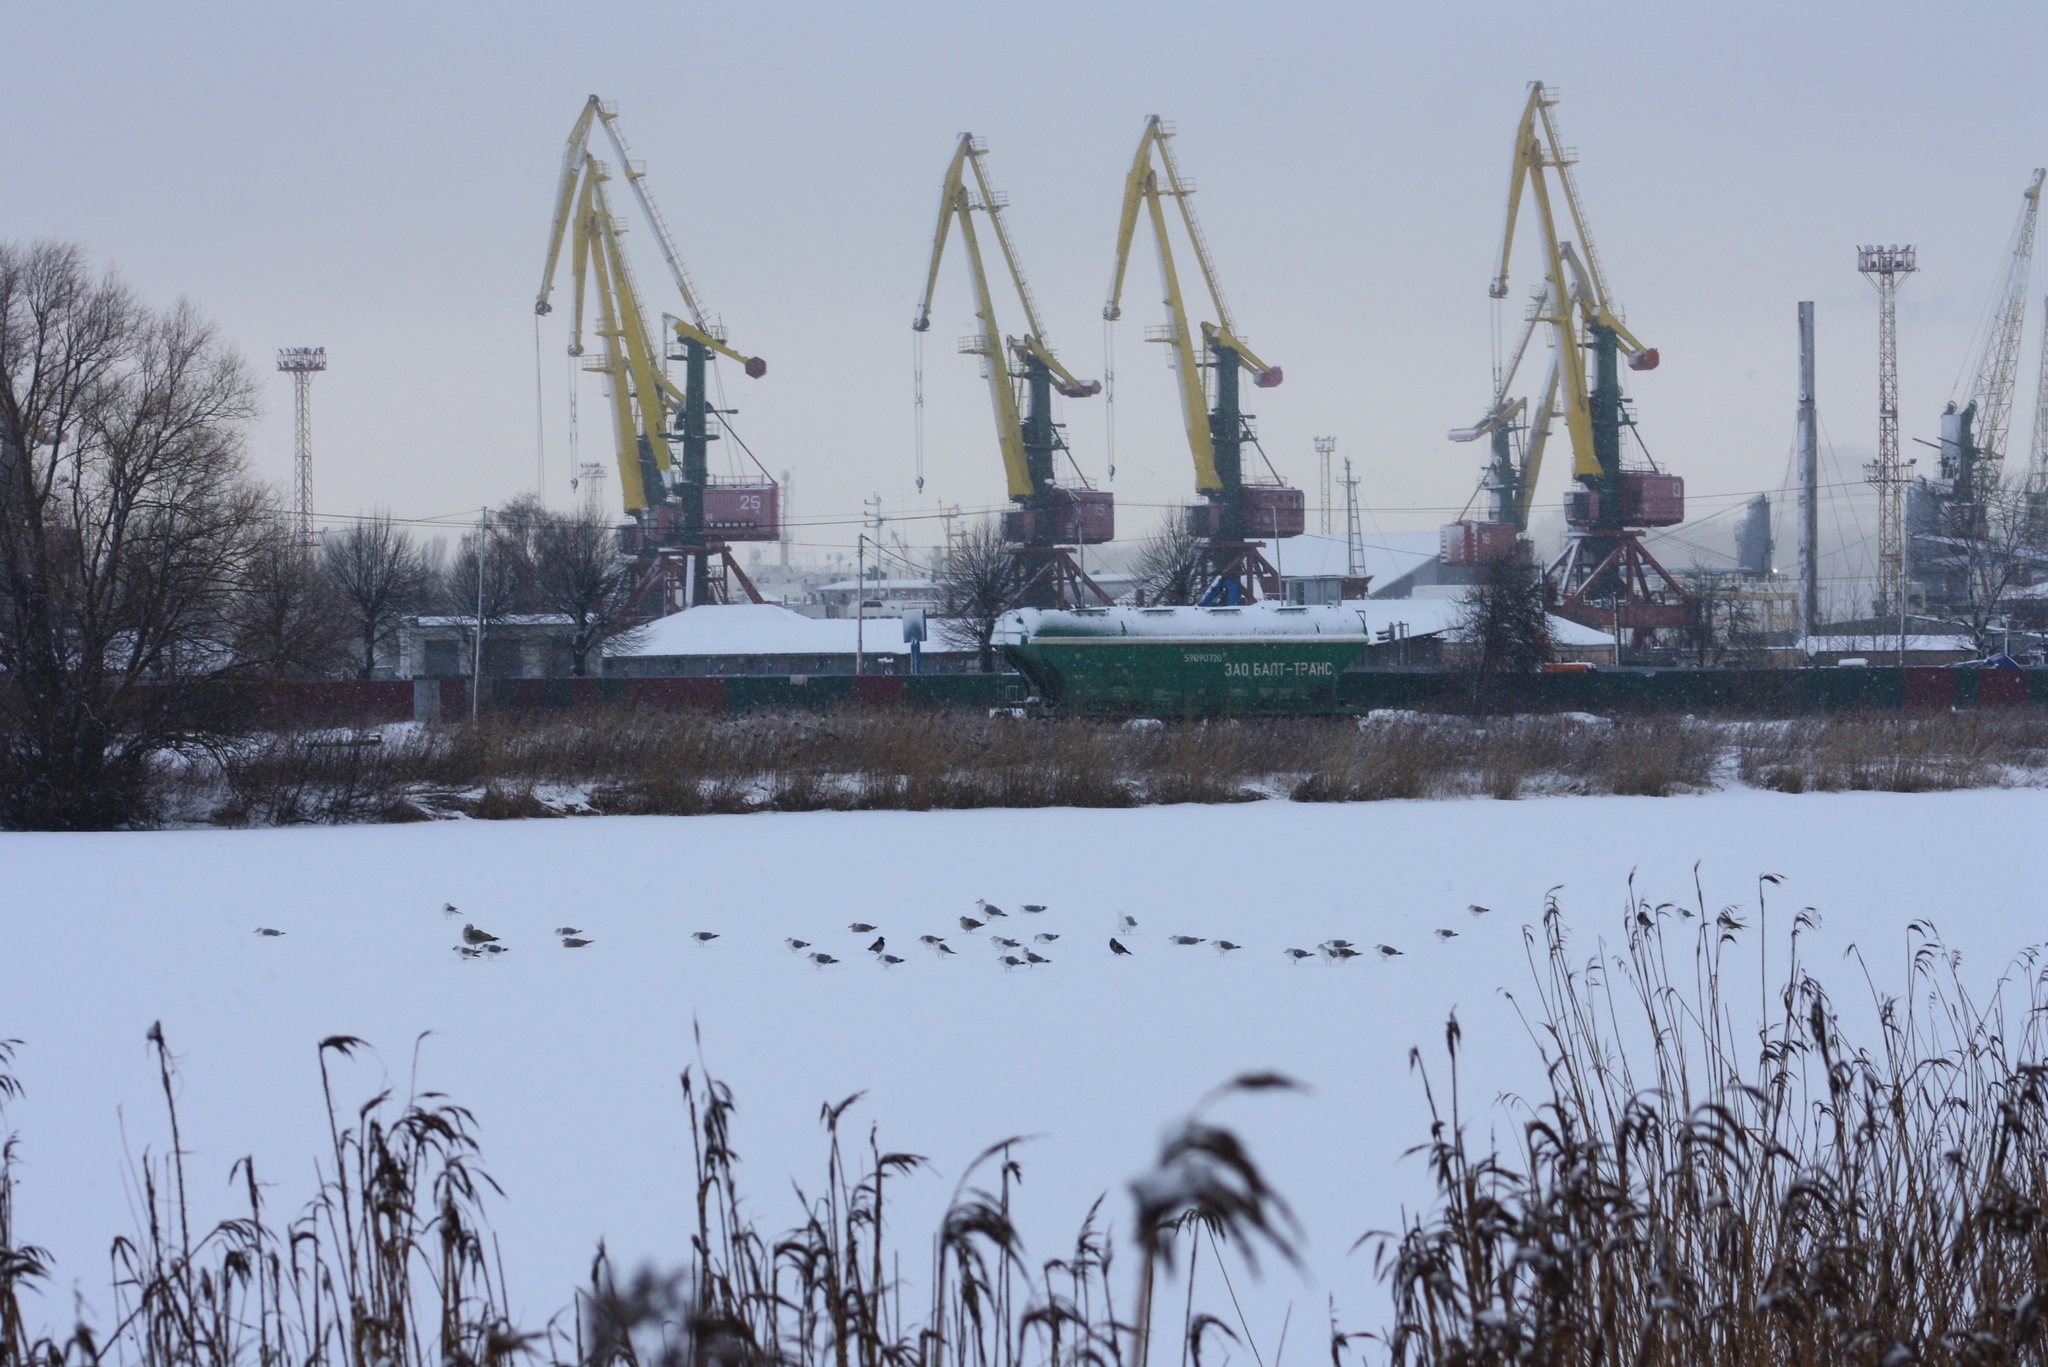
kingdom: Animalia
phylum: Chordata
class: Aves
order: Passeriformes
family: Corvidae
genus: Corvus
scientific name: Corvus cornix
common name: Hooded crow
